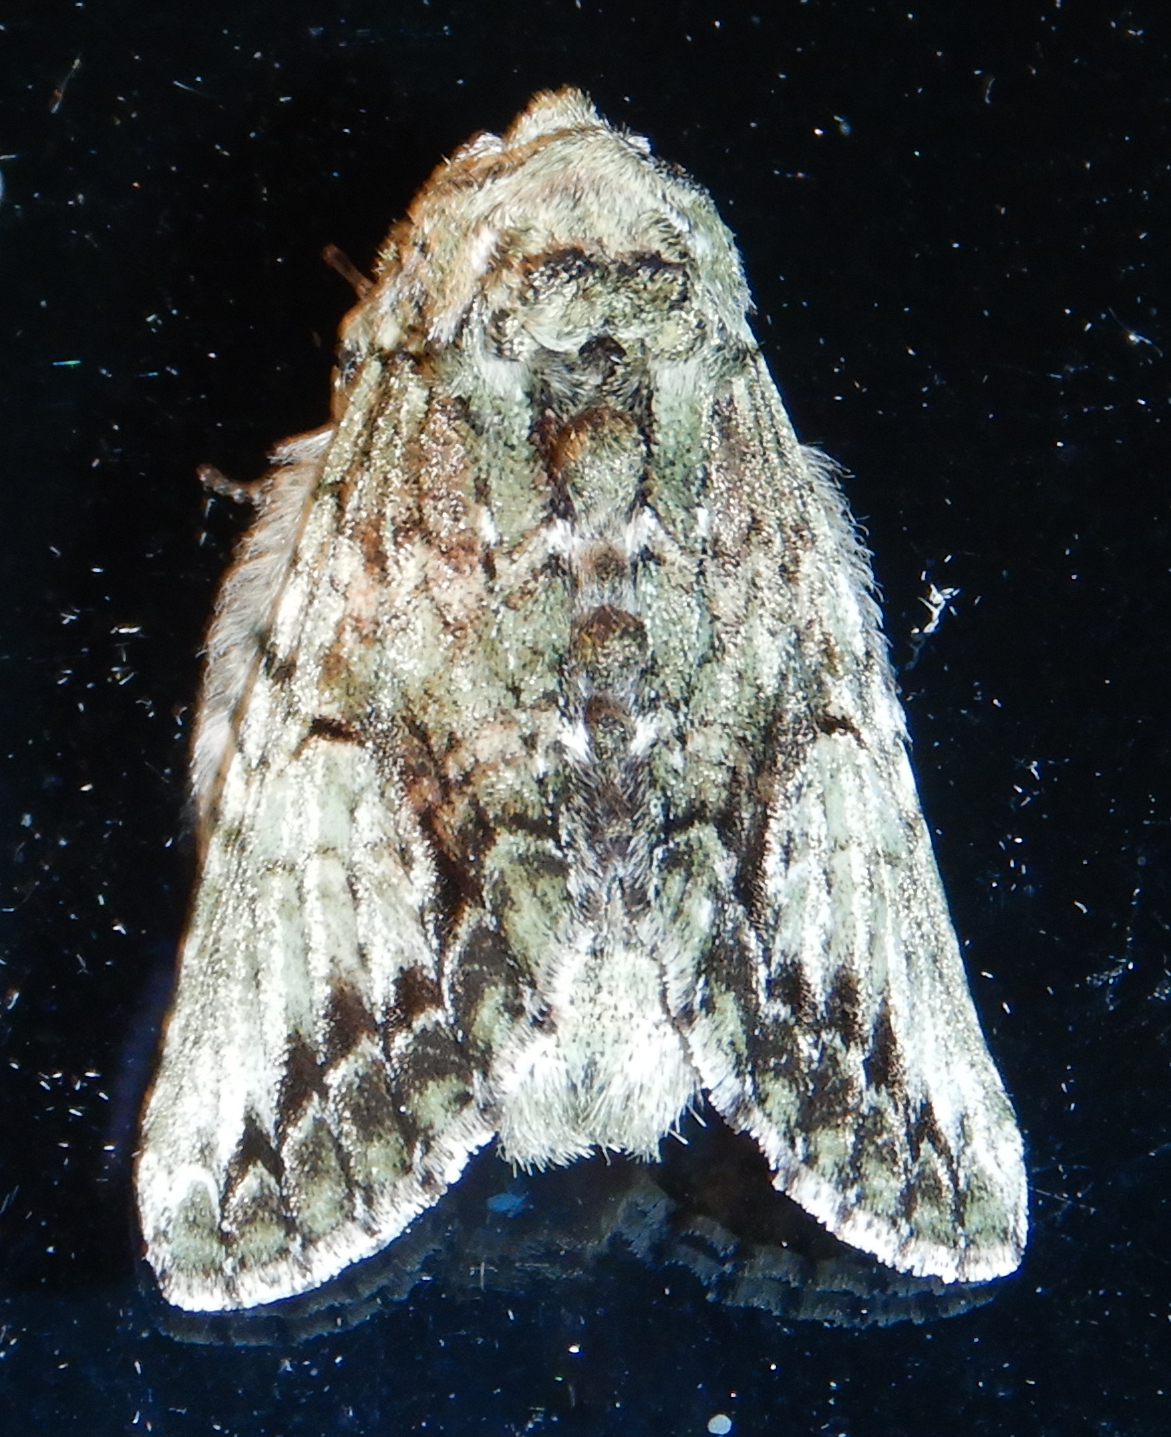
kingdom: Animalia
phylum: Arthropoda
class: Insecta
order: Lepidoptera
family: Notodontidae
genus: Heterocampa
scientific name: Heterocampa
